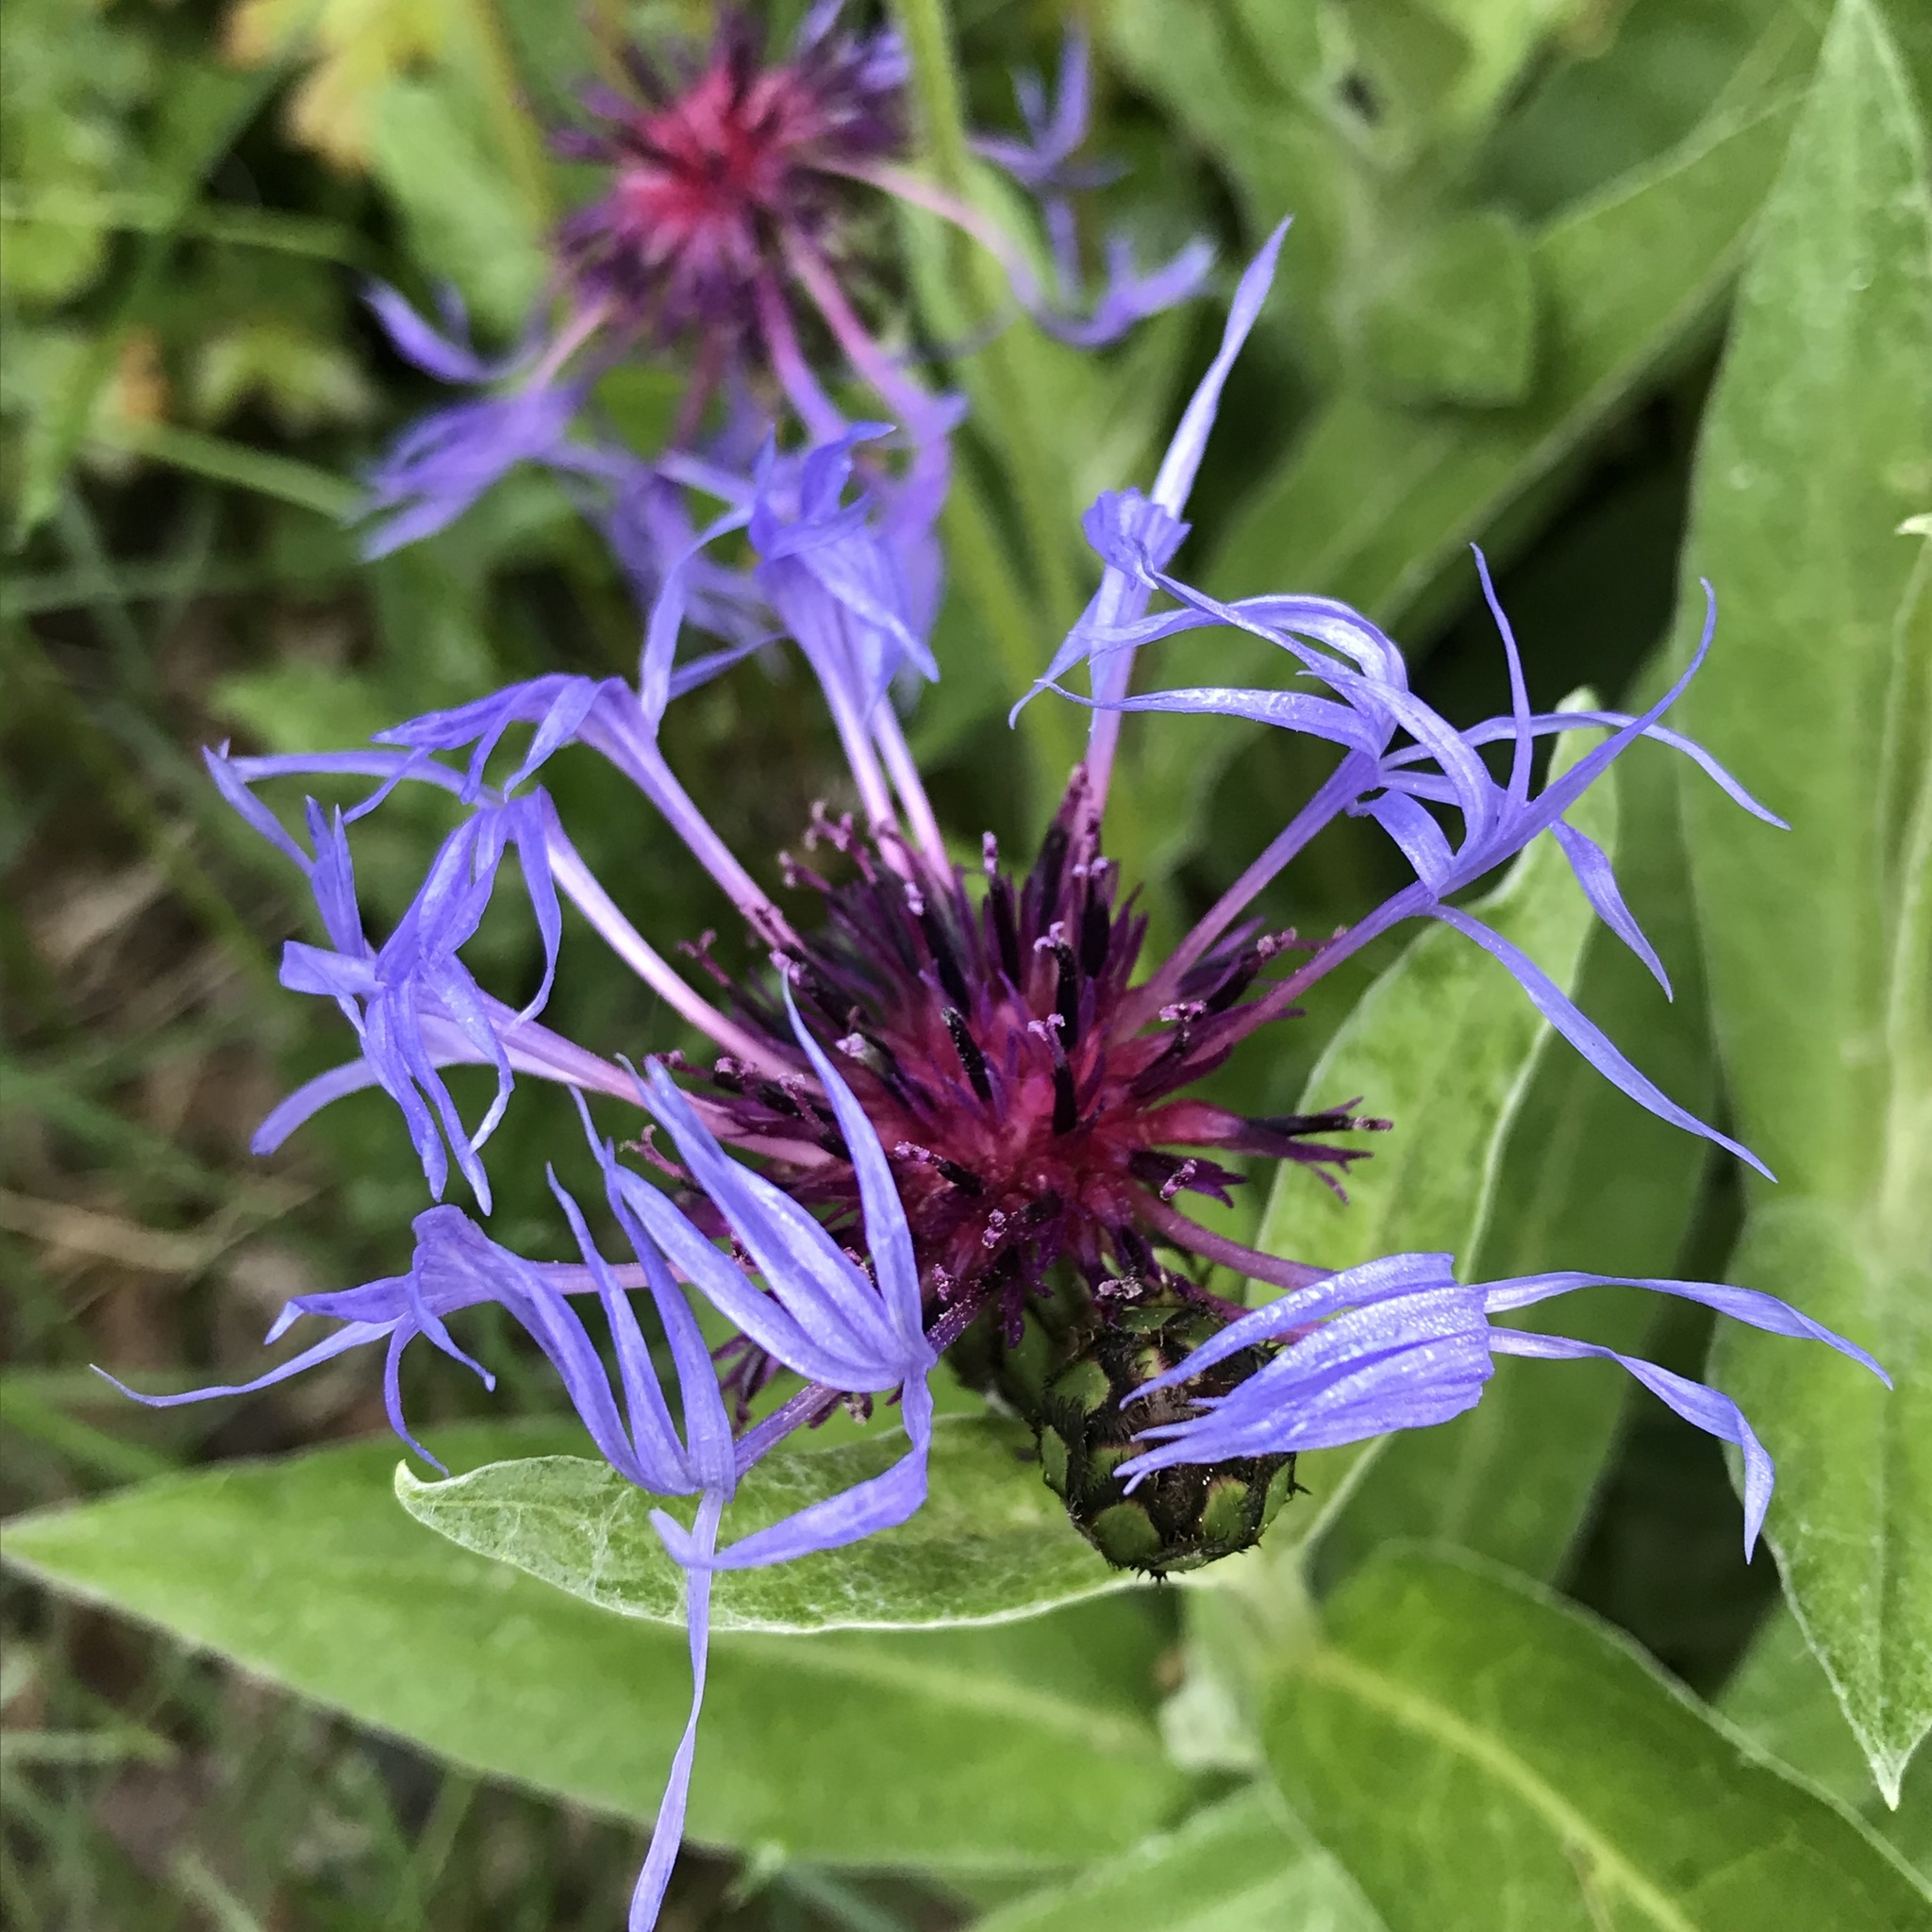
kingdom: Plantae
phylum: Tracheophyta
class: Magnoliopsida
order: Asterales
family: Asteraceae
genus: Centaurea
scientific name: Centaurea montana
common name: Perennial cornflower
